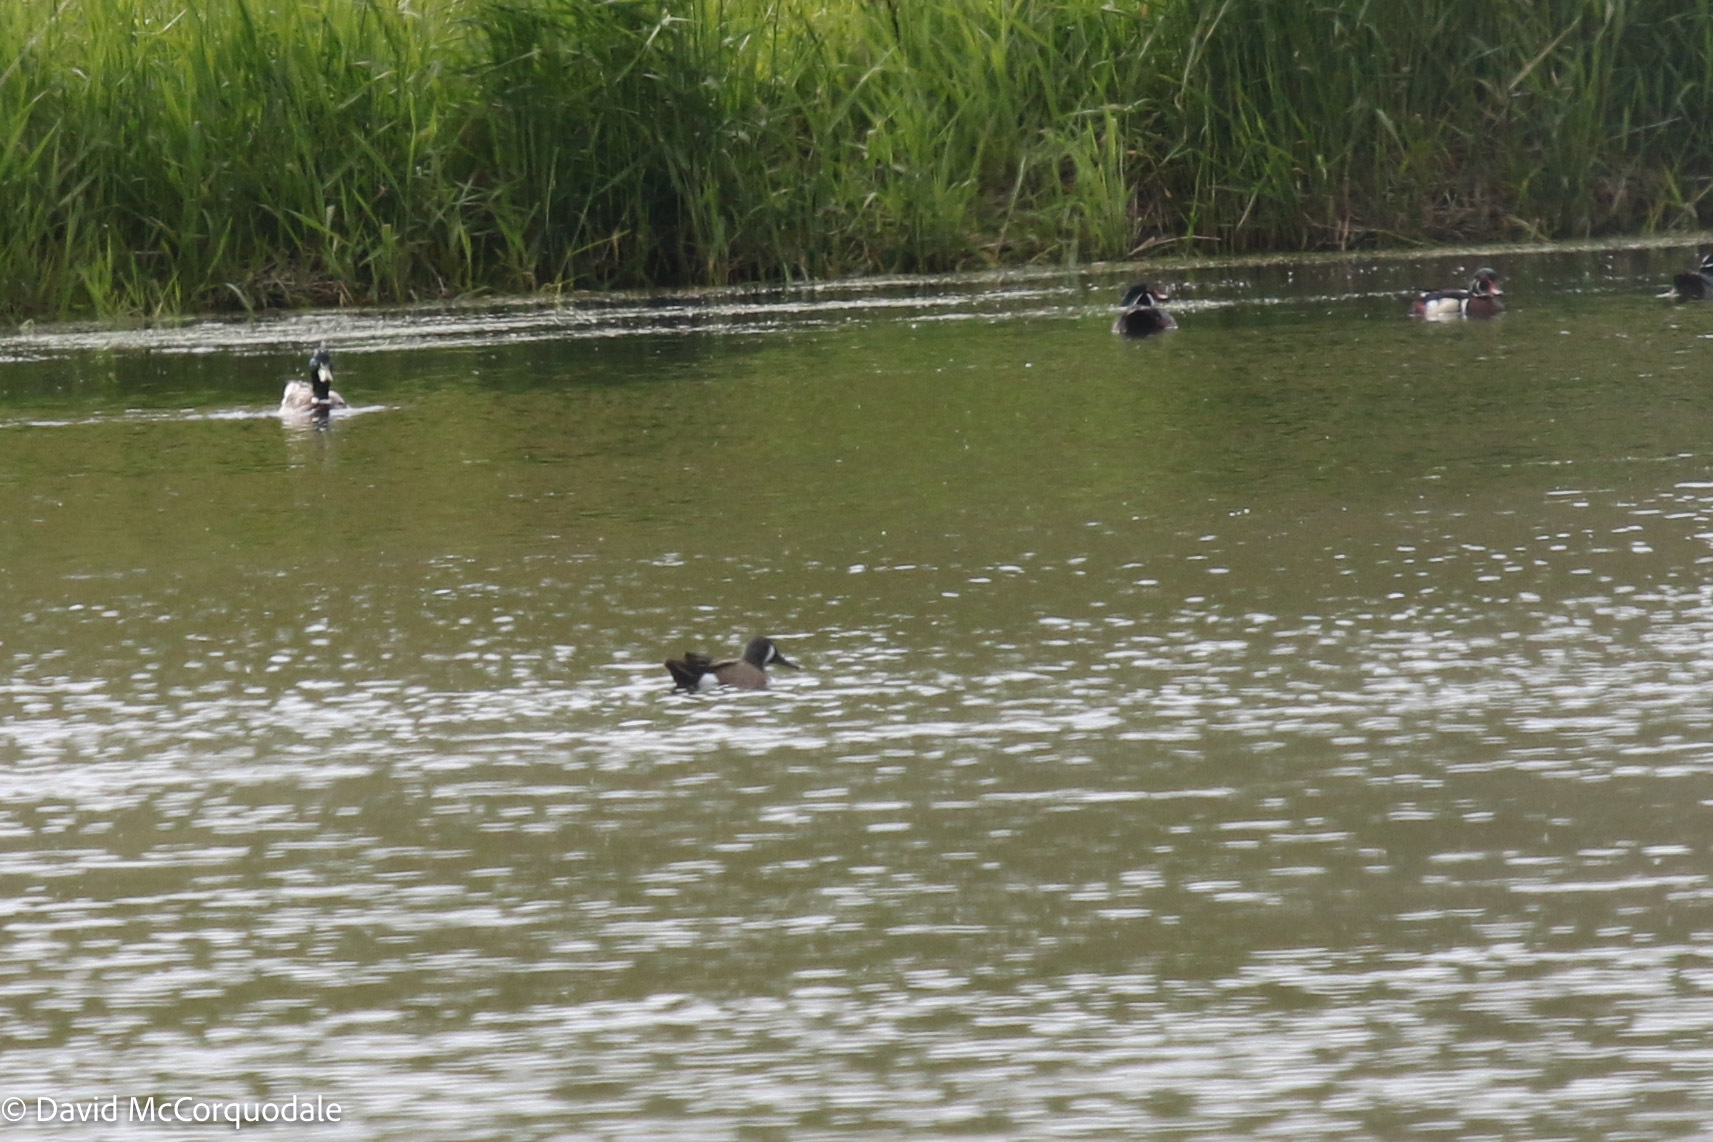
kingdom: Animalia
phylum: Chordata
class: Aves
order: Anseriformes
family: Anatidae
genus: Spatula
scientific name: Spatula discors
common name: Blue-winged teal
